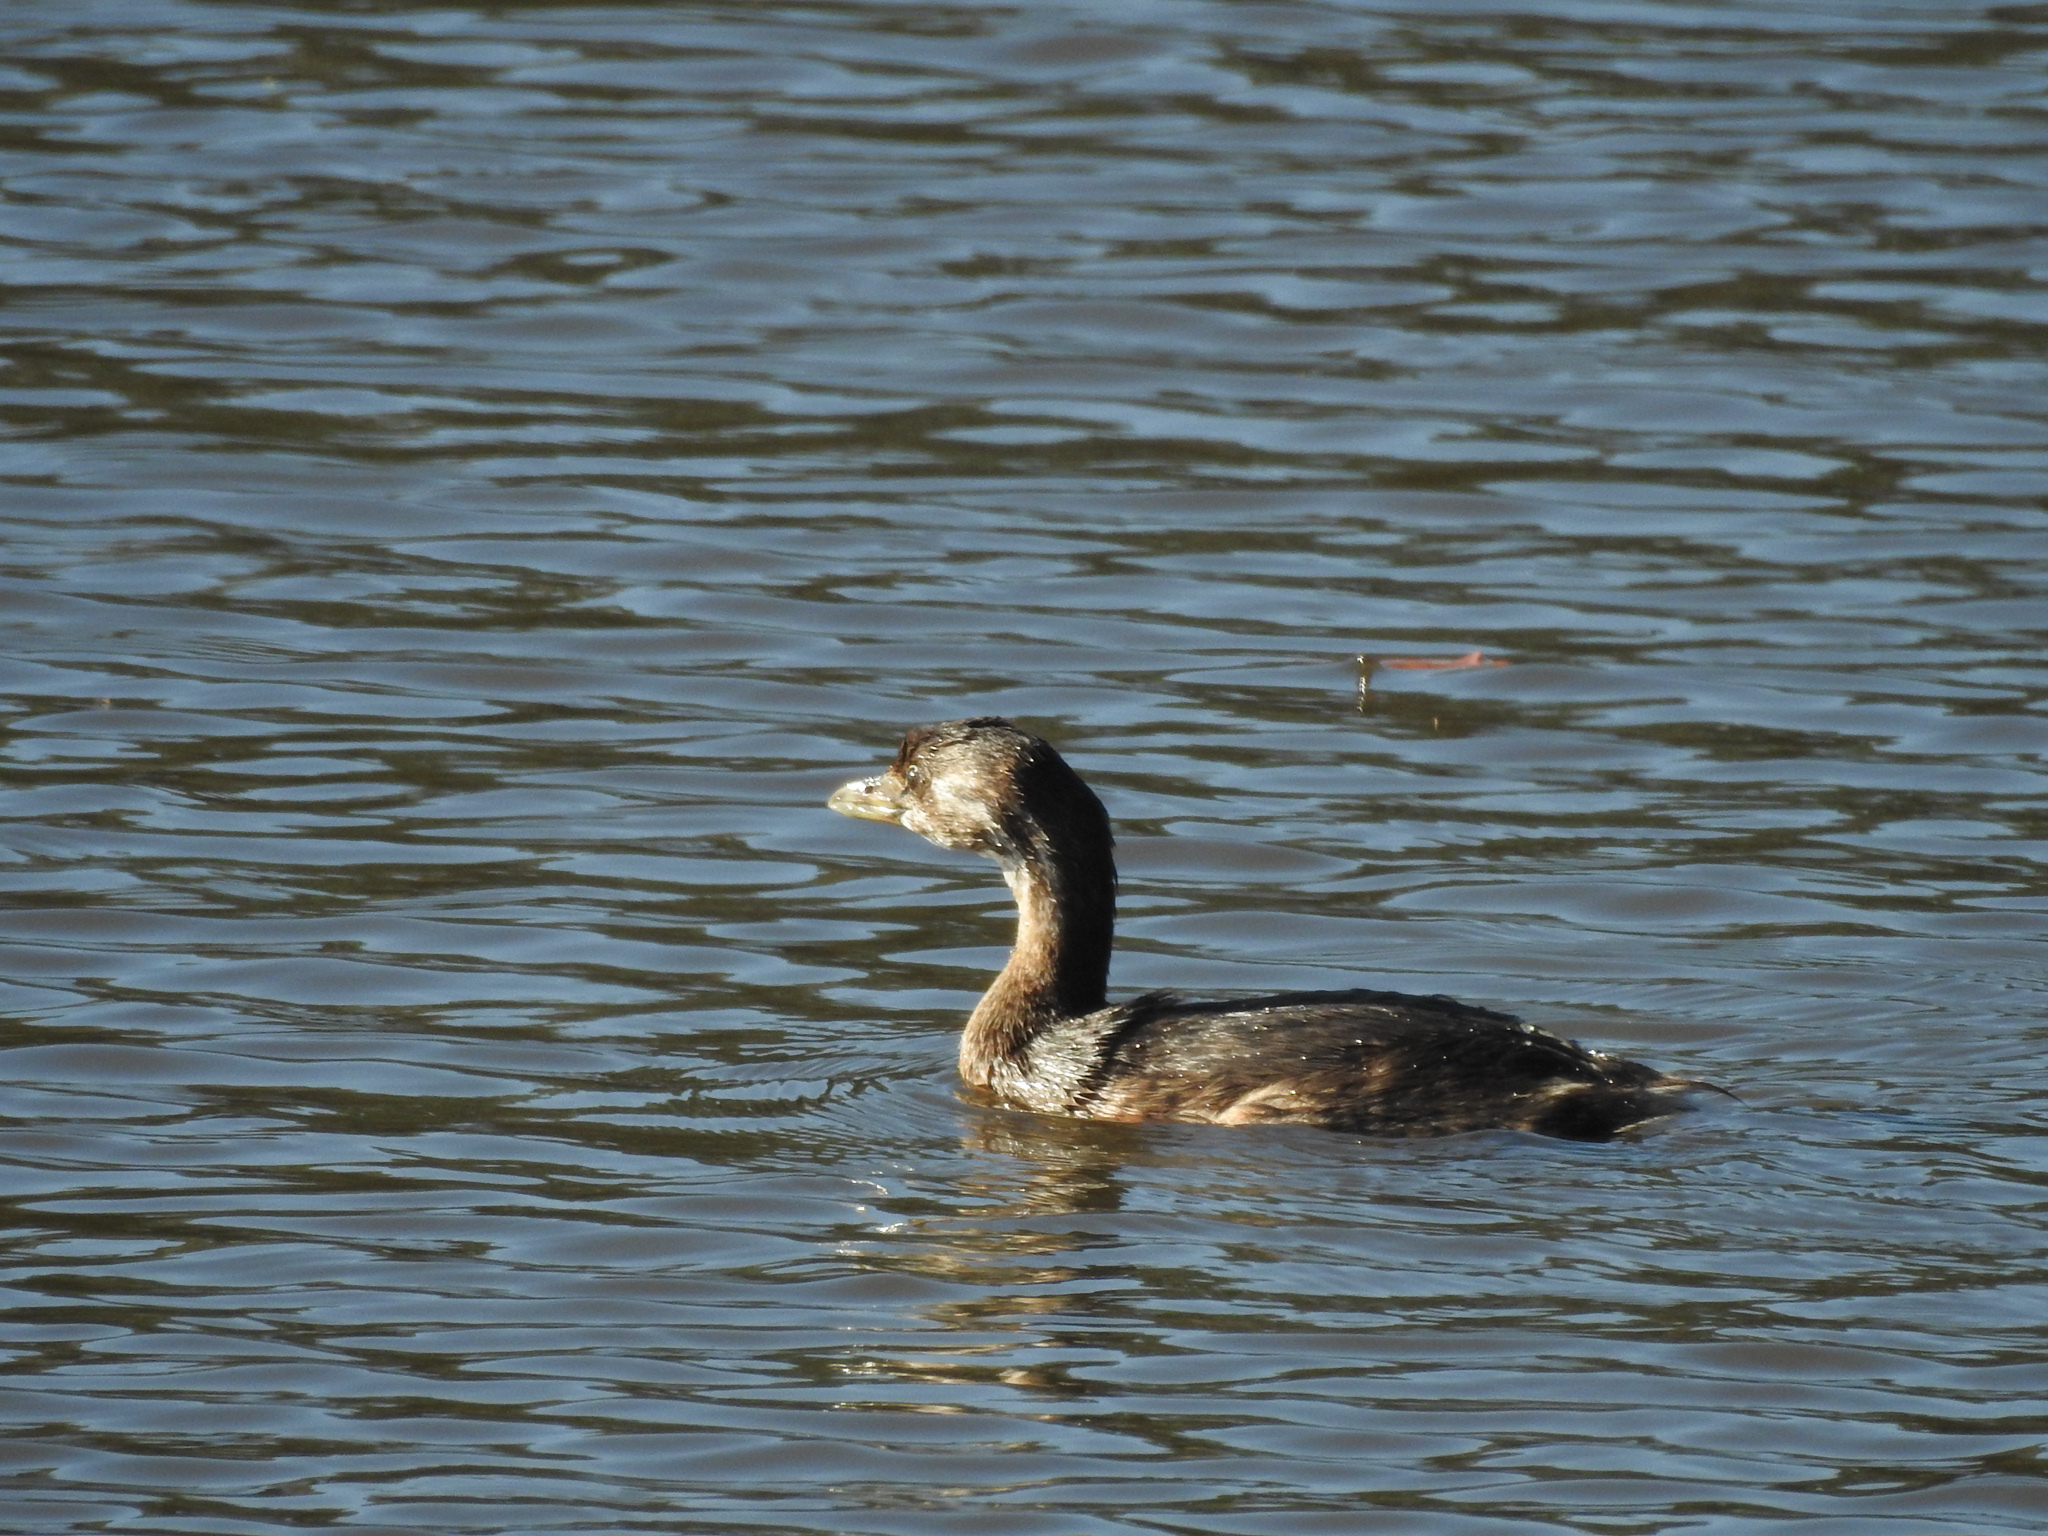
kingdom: Animalia
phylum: Chordata
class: Aves
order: Podicipediformes
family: Podicipedidae
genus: Podilymbus
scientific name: Podilymbus podiceps
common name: Pied-billed grebe
